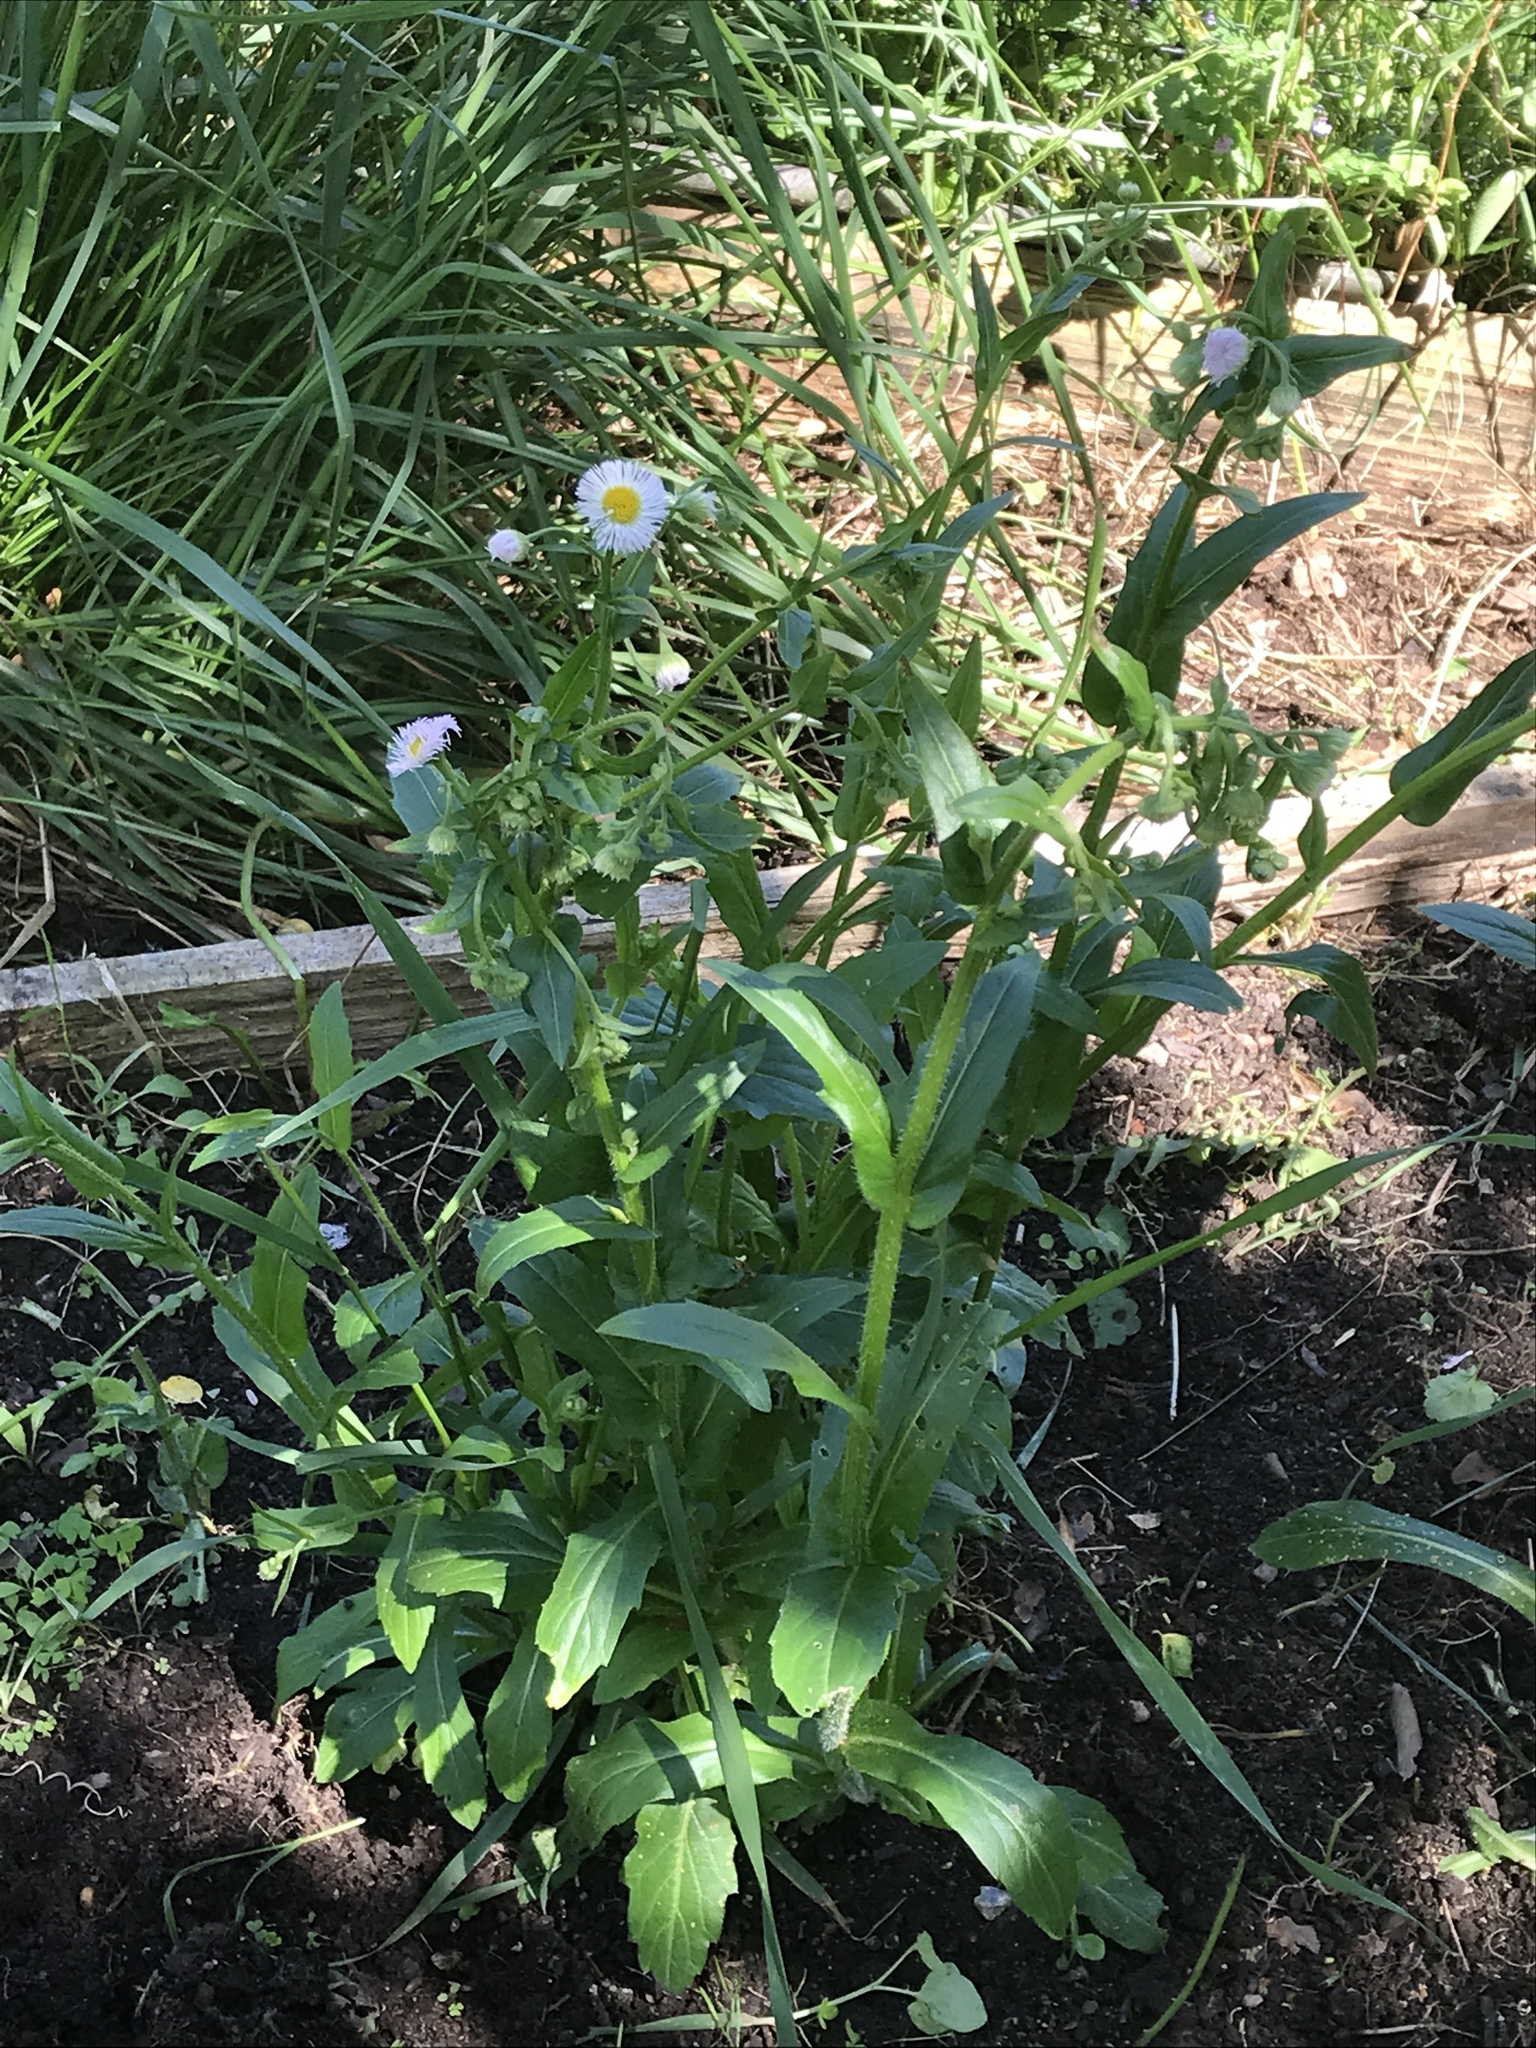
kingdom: Plantae
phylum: Tracheophyta
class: Magnoliopsida
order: Asterales
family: Asteraceae
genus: Erigeron
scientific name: Erigeron philadelphicus
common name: Robin's-plantain
